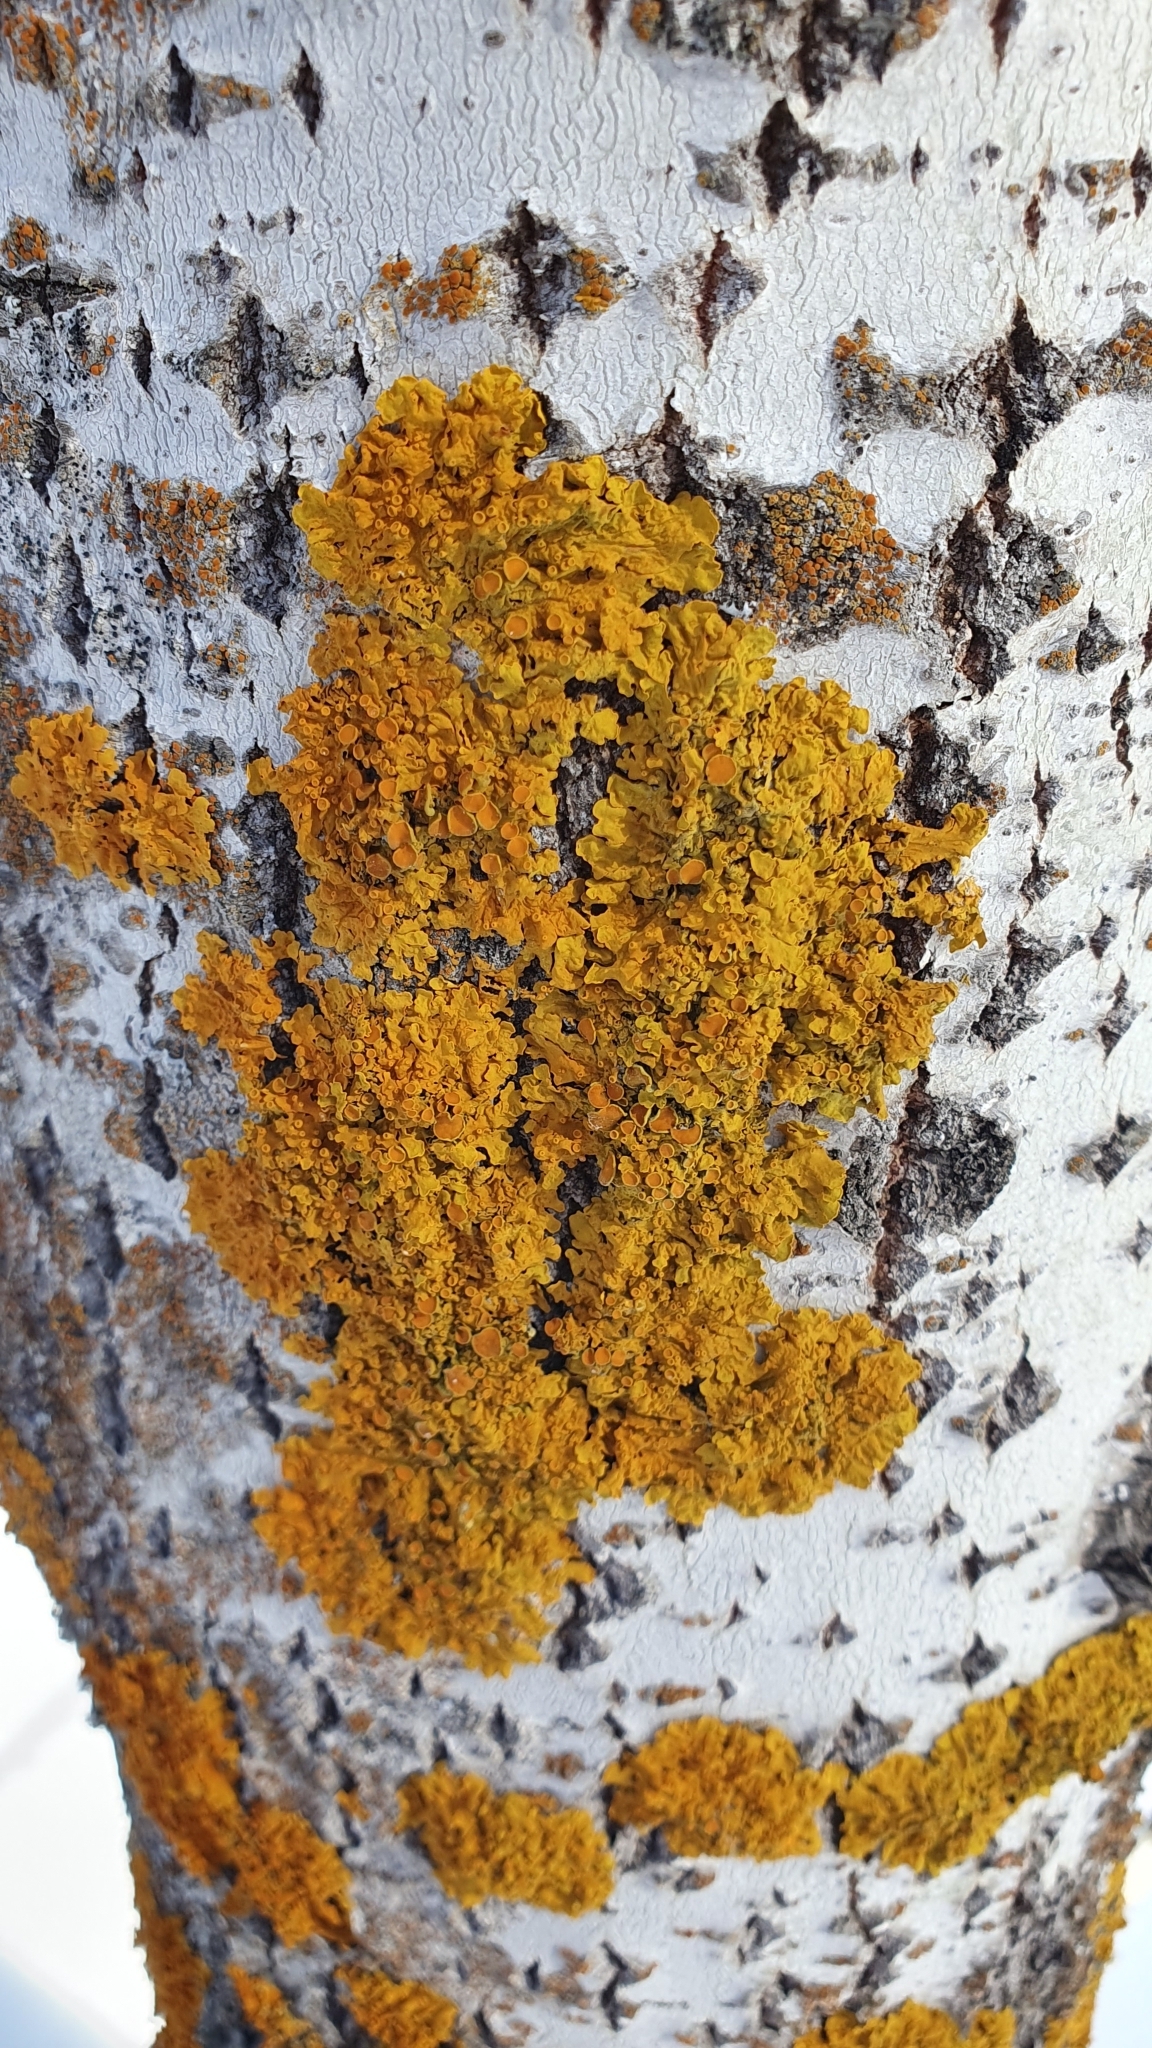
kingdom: Fungi
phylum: Ascomycota
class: Lecanoromycetes
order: Teloschistales
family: Teloschistaceae
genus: Xanthoria
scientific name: Xanthoria parietina
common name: Common orange lichen
